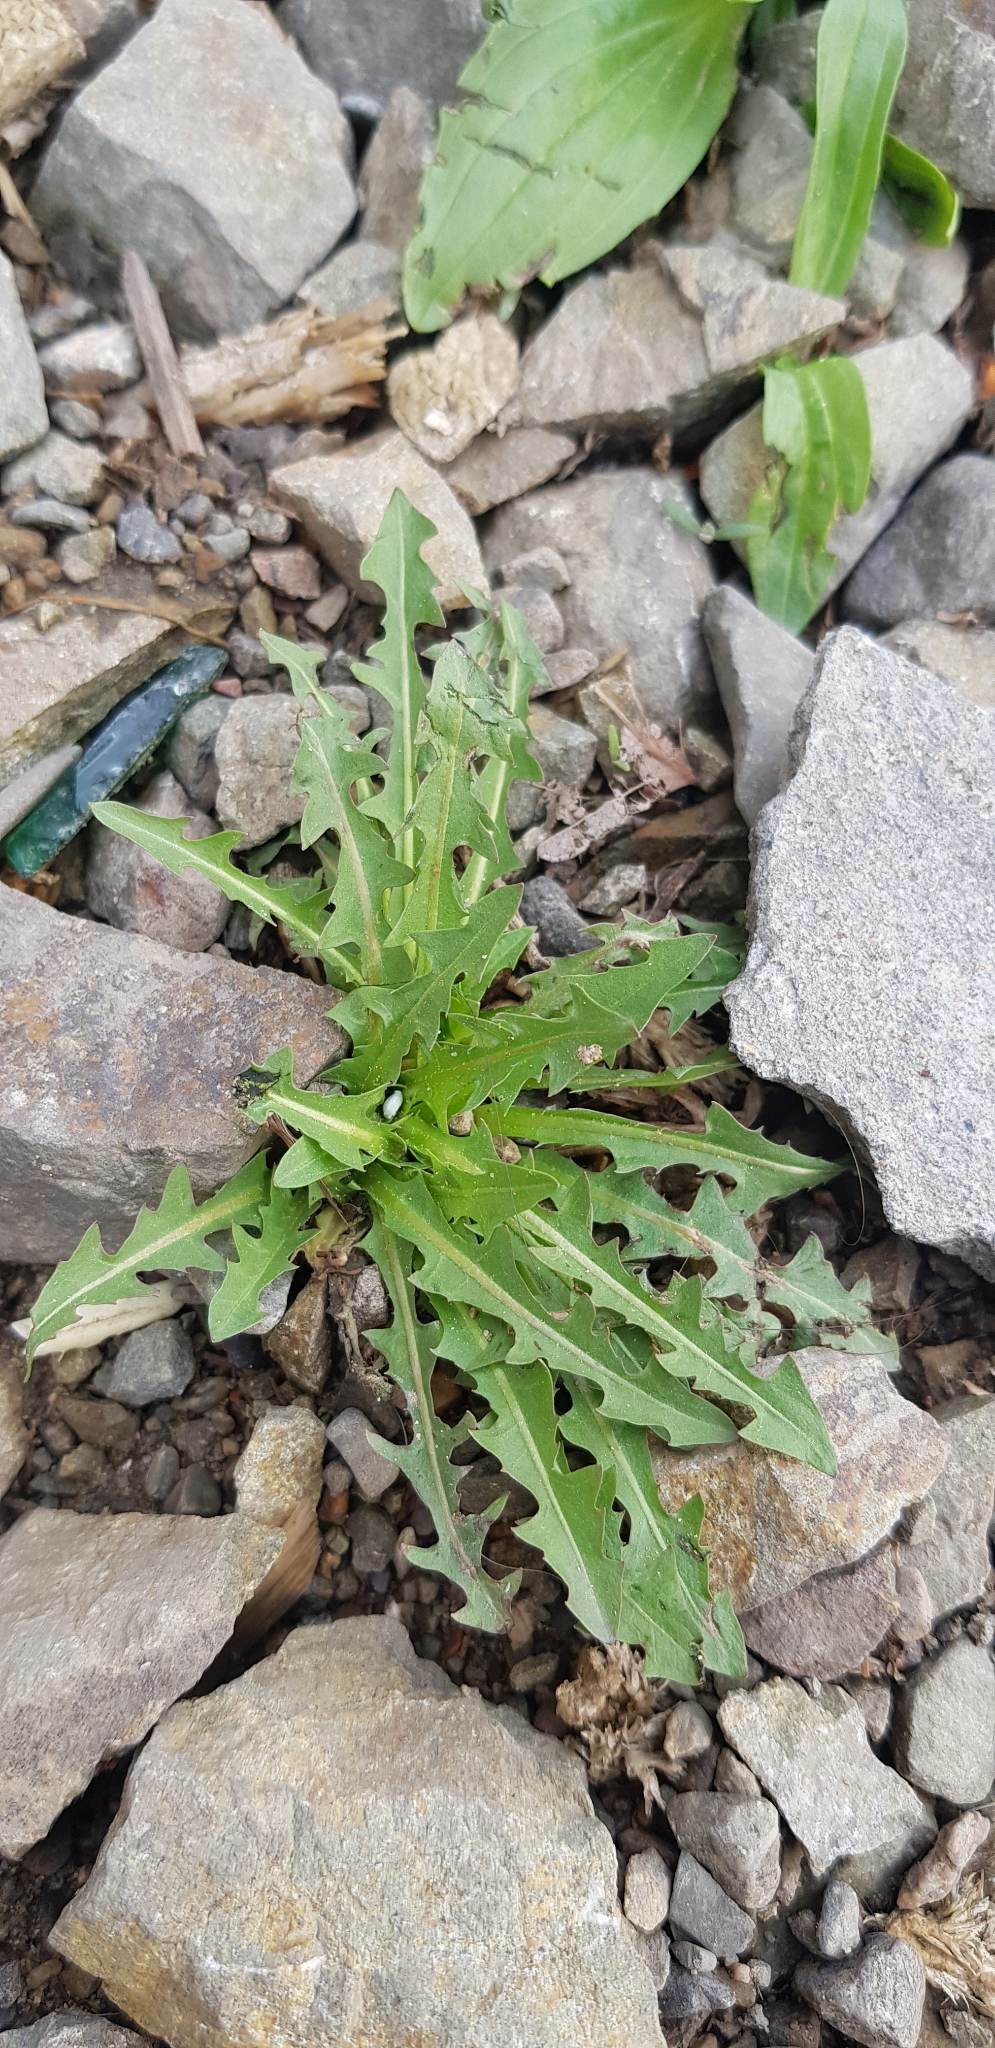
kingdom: Plantae
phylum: Tracheophyta
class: Magnoliopsida
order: Asterales
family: Asteraceae
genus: Taraxacum
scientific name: Taraxacum officinale
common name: Common dandelion
